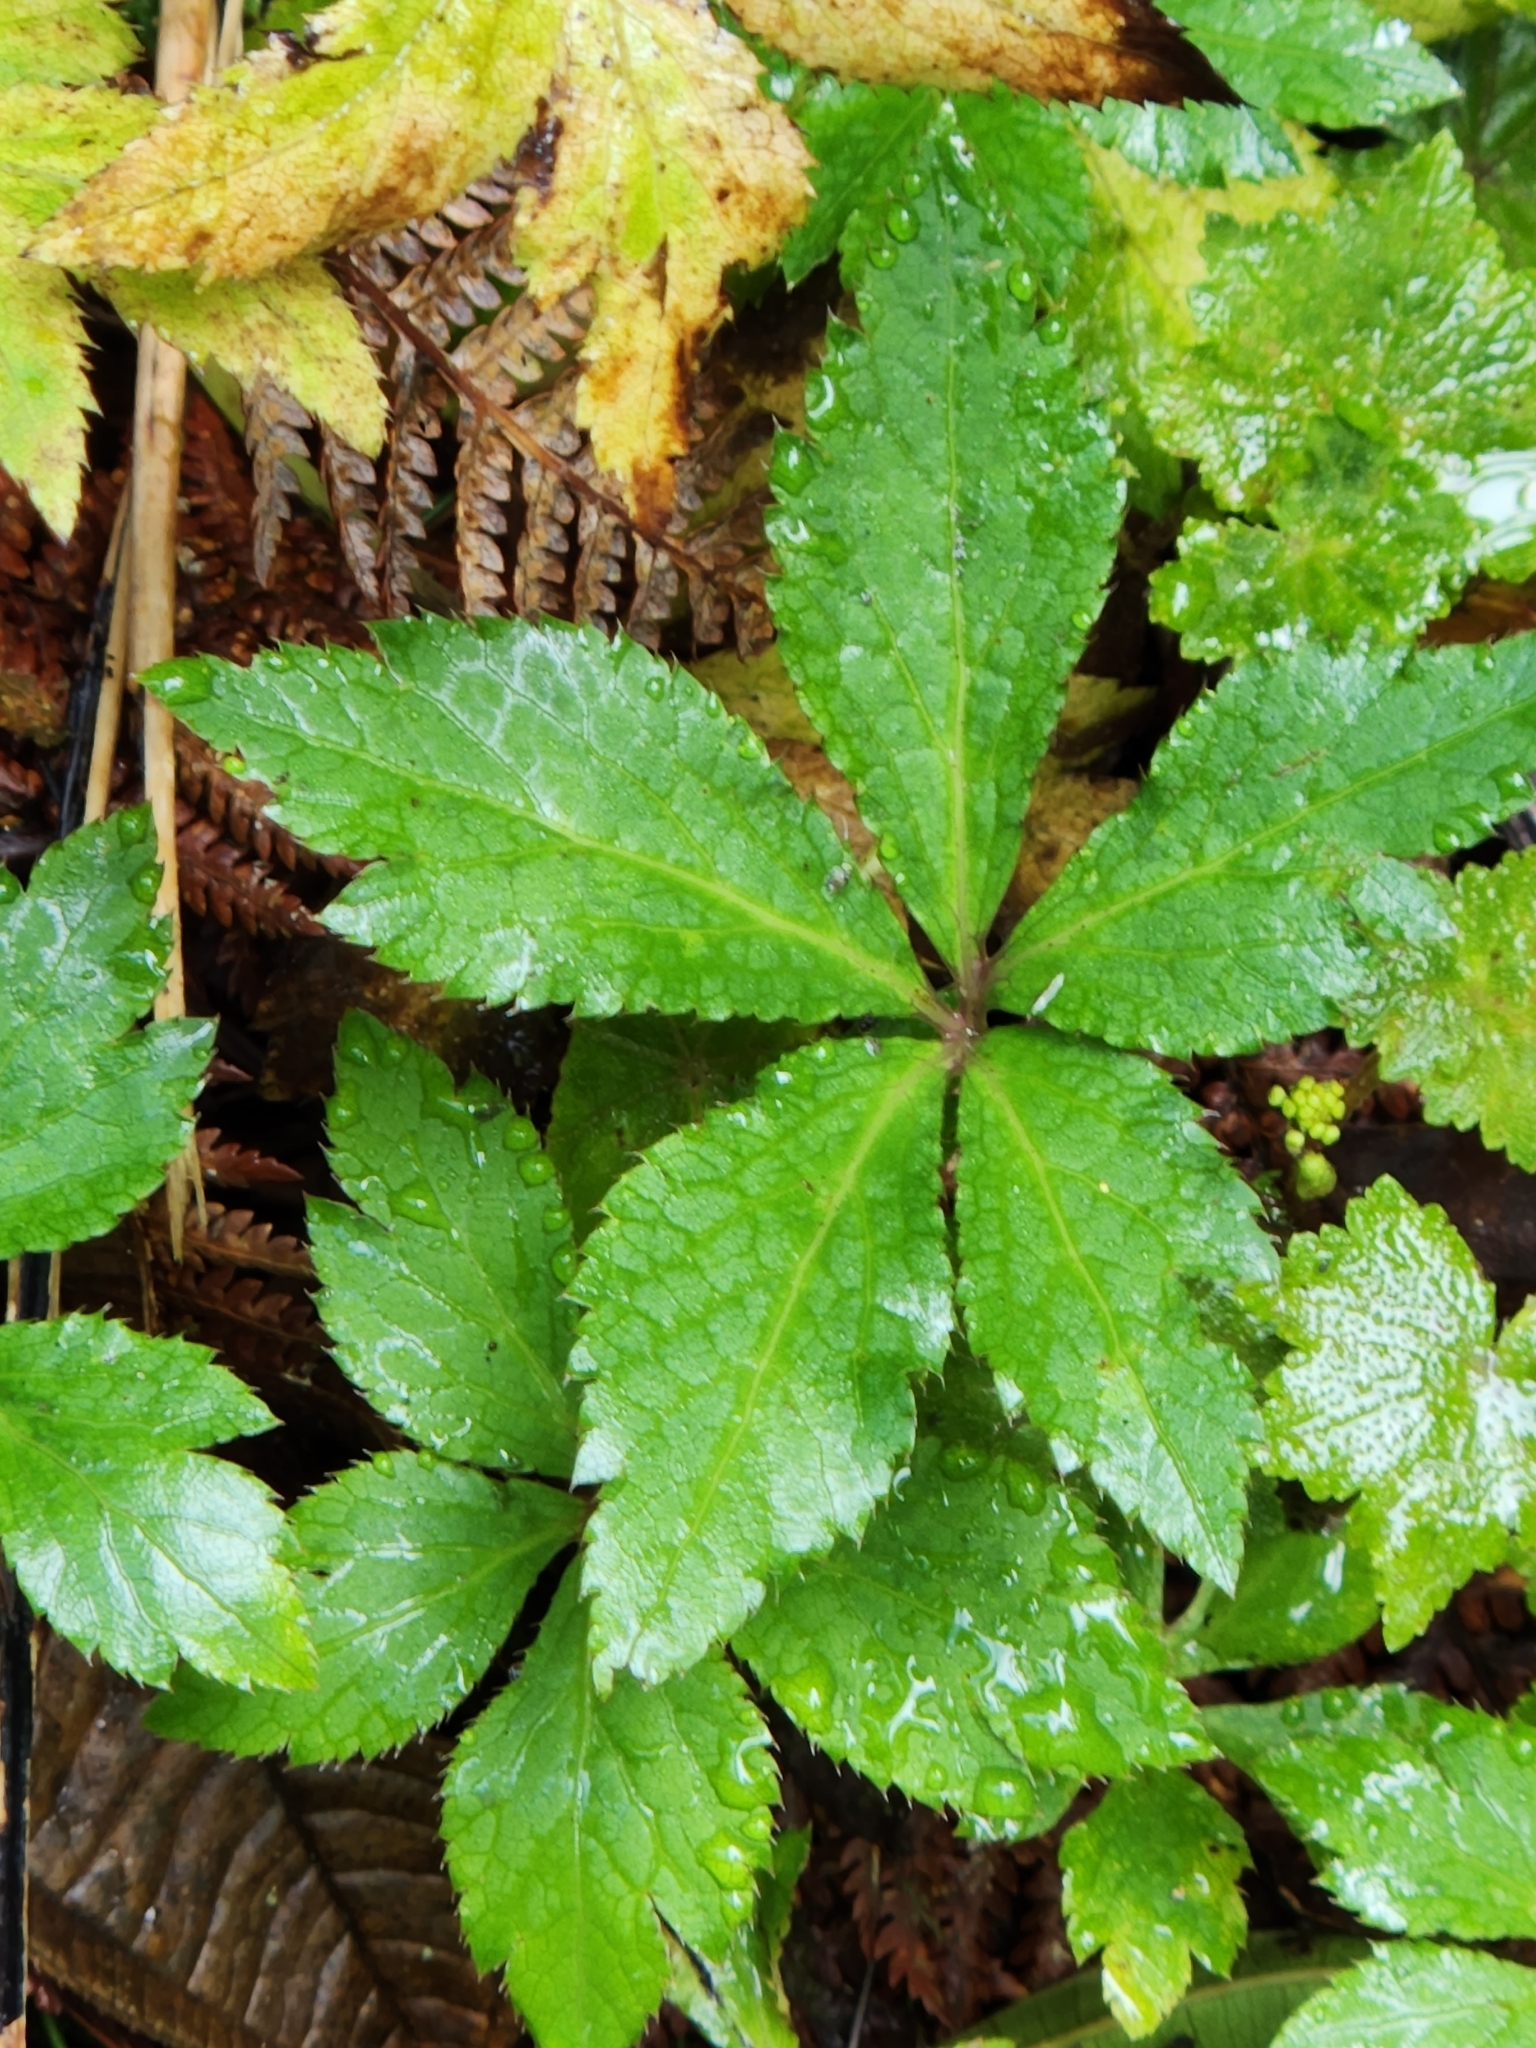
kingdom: Plantae
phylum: Tracheophyta
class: Magnoliopsida
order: Apiales
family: Apiaceae
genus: Sanicula
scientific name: Sanicula liberta
